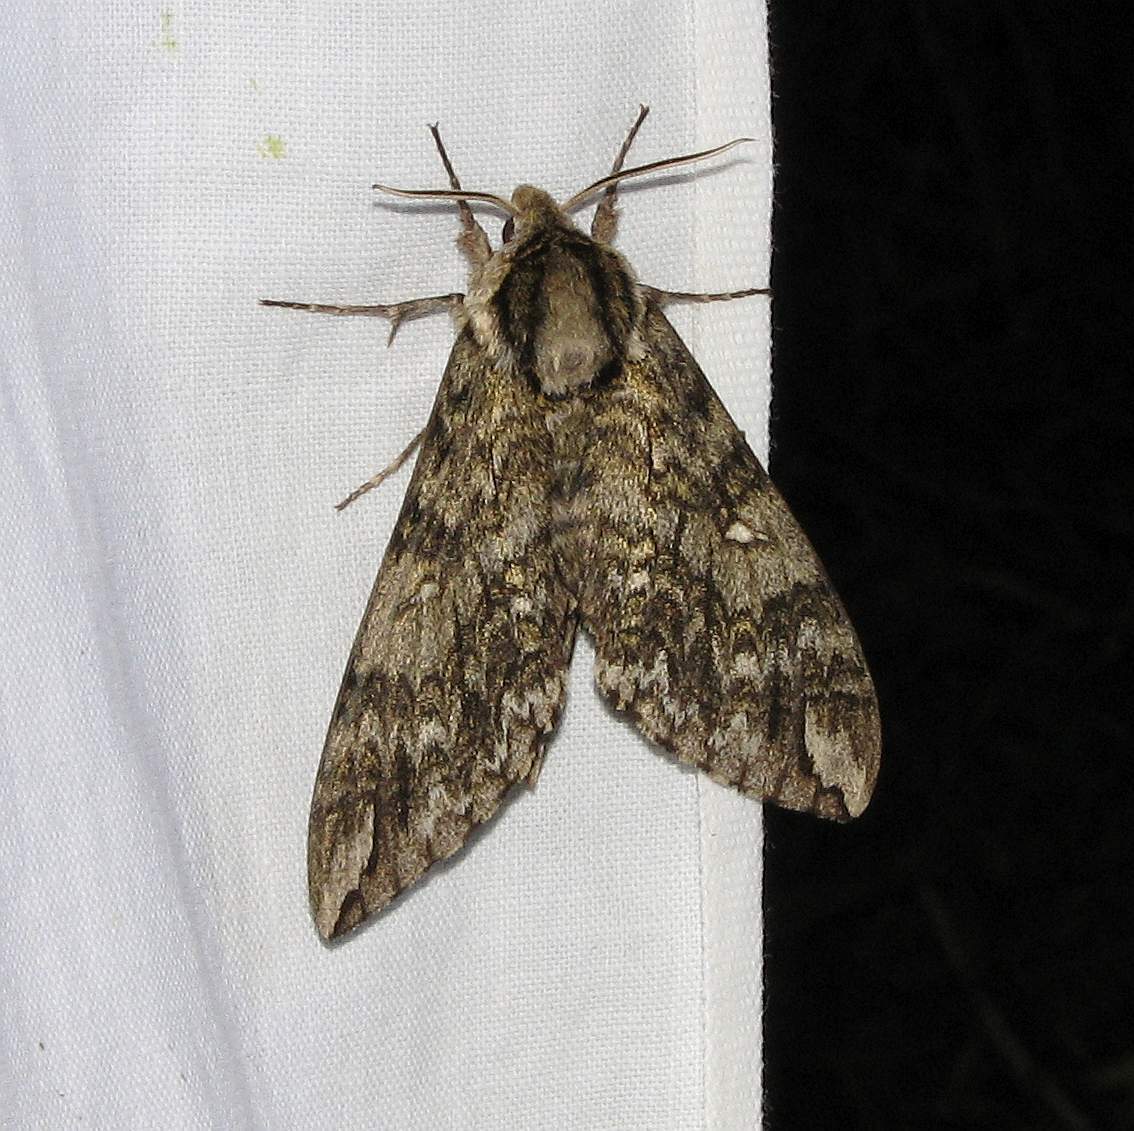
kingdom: Animalia
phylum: Arthropoda
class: Insecta
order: Lepidoptera
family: Sphingidae
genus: Ceratomia
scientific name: Ceratomia undulosa
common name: Waved sphinx
